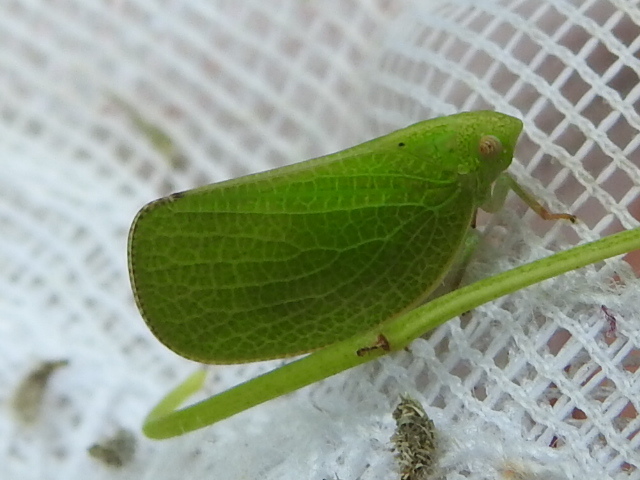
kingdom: Animalia
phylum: Arthropoda
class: Insecta
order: Hemiptera
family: Acanaloniidae
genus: Acanalonia
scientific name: Acanalonia conica
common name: Green cone-headed planthopper
